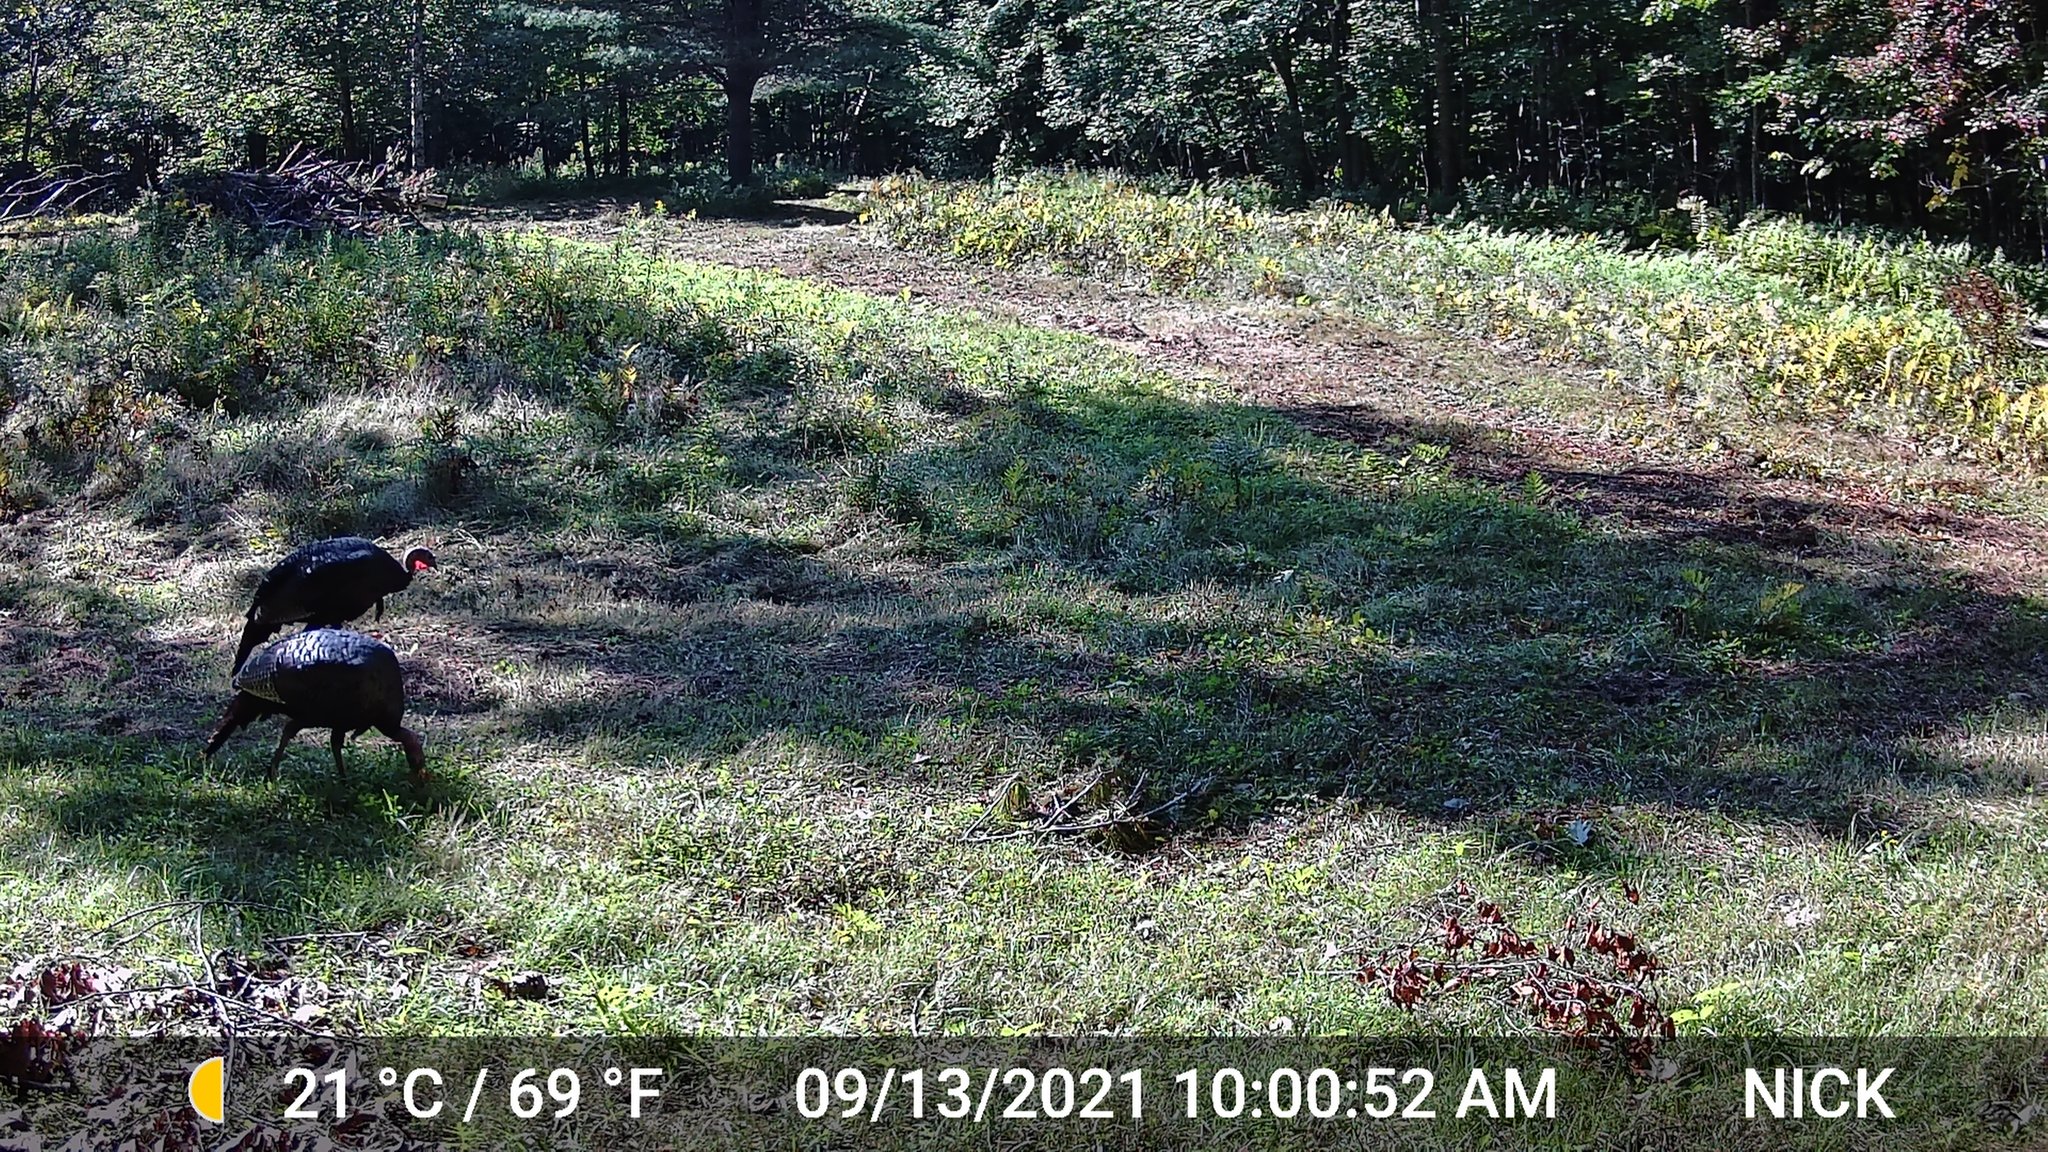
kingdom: Animalia
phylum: Chordata
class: Aves
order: Galliformes
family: Phasianidae
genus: Meleagris
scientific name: Meleagris gallopavo
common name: Wild turkey
